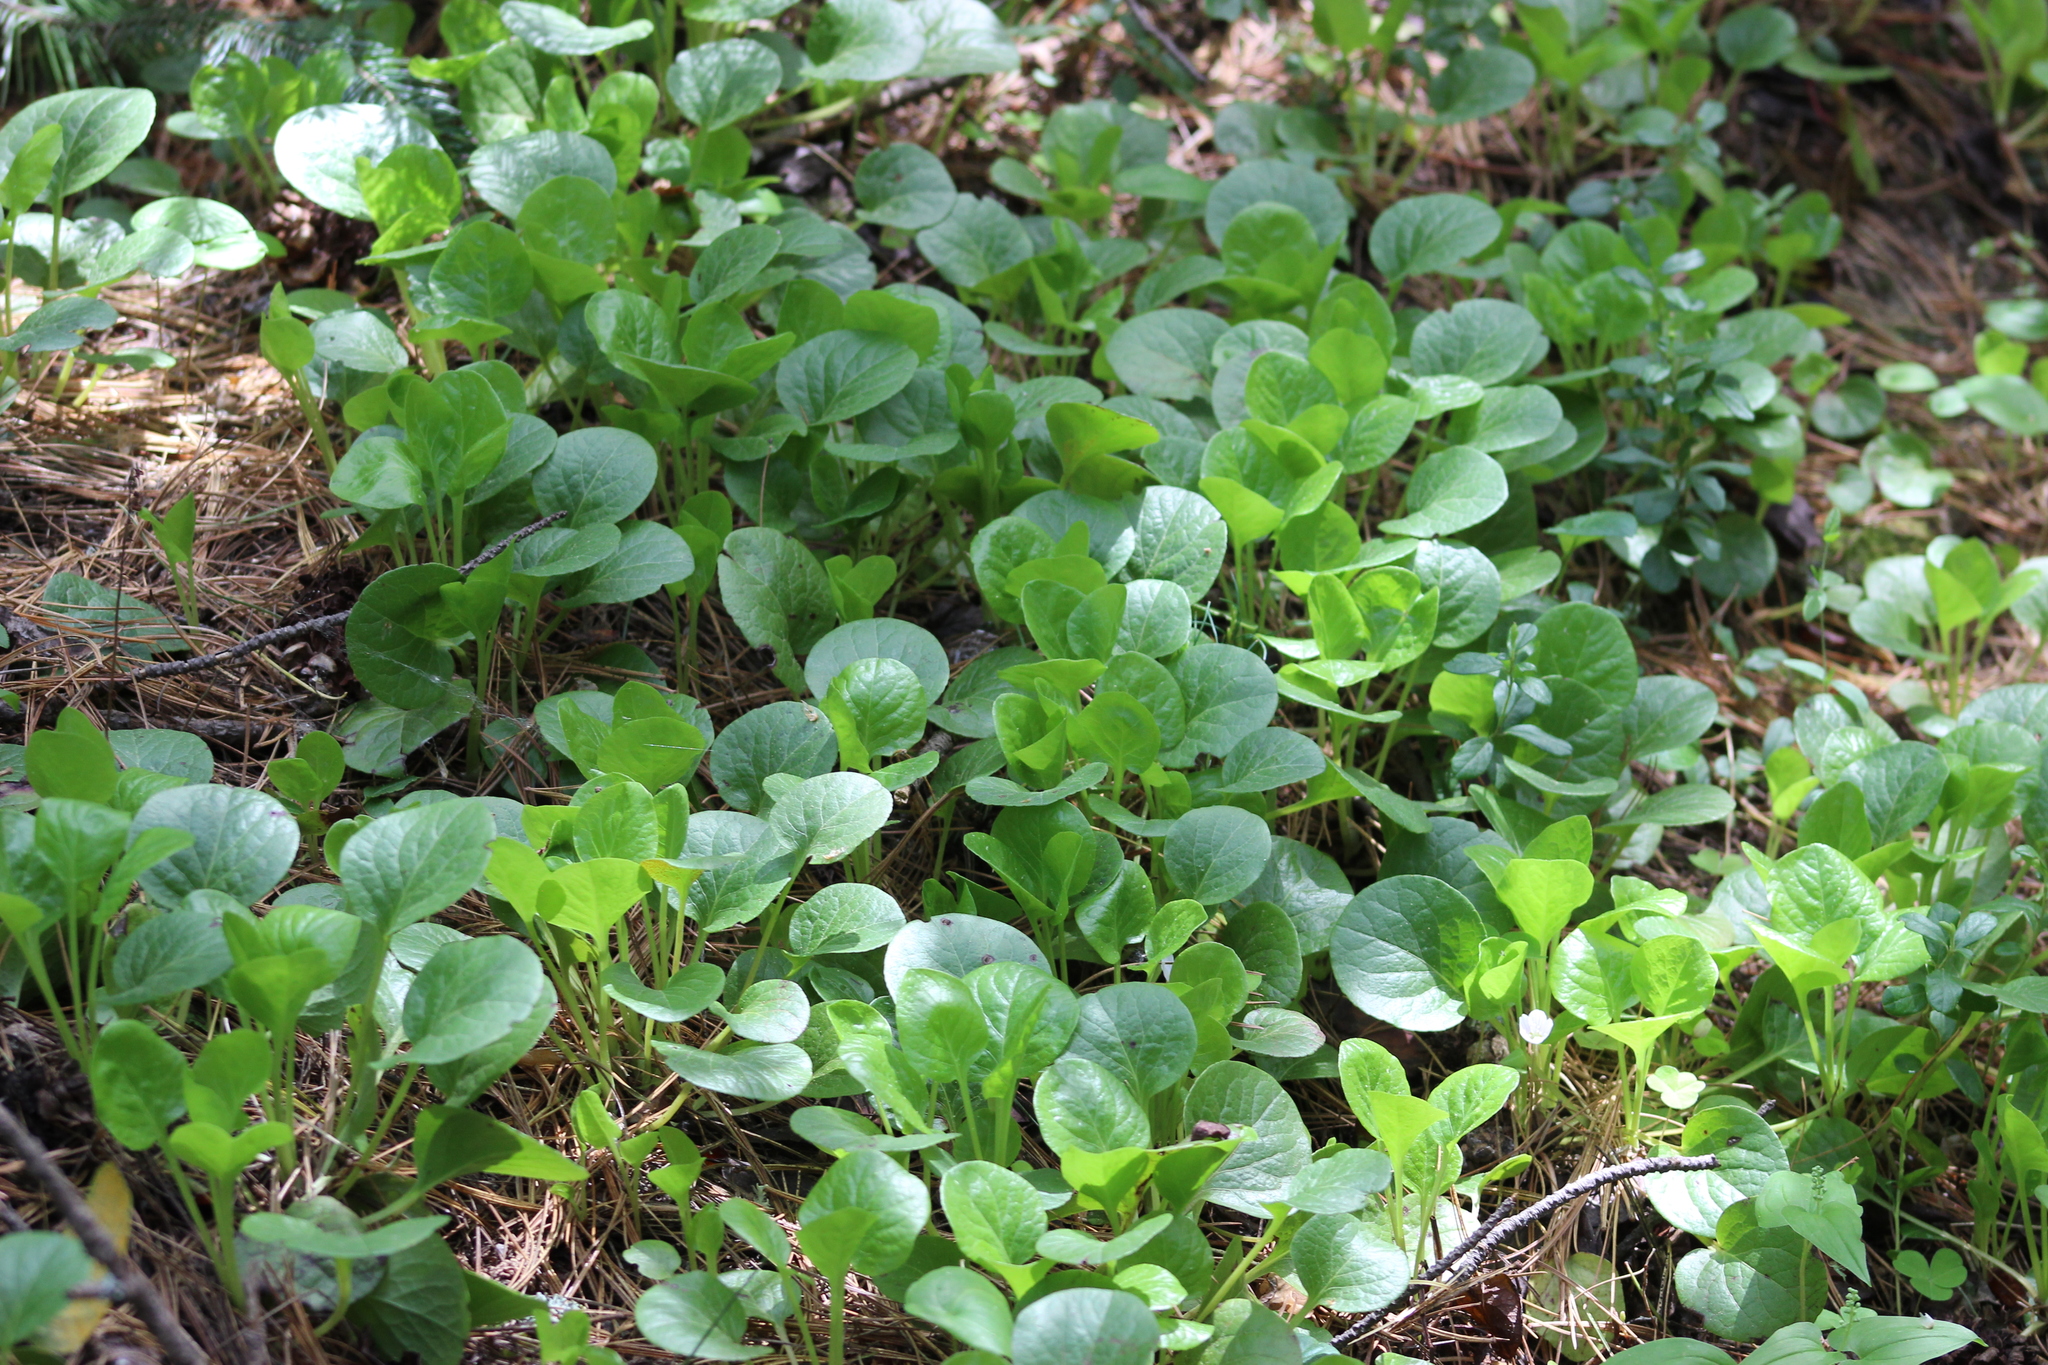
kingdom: Plantae
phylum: Tracheophyta
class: Magnoliopsida
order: Ericales
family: Ericaceae
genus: Pyrola
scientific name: Pyrola rotundifolia
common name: Round-leaved wintergreen
